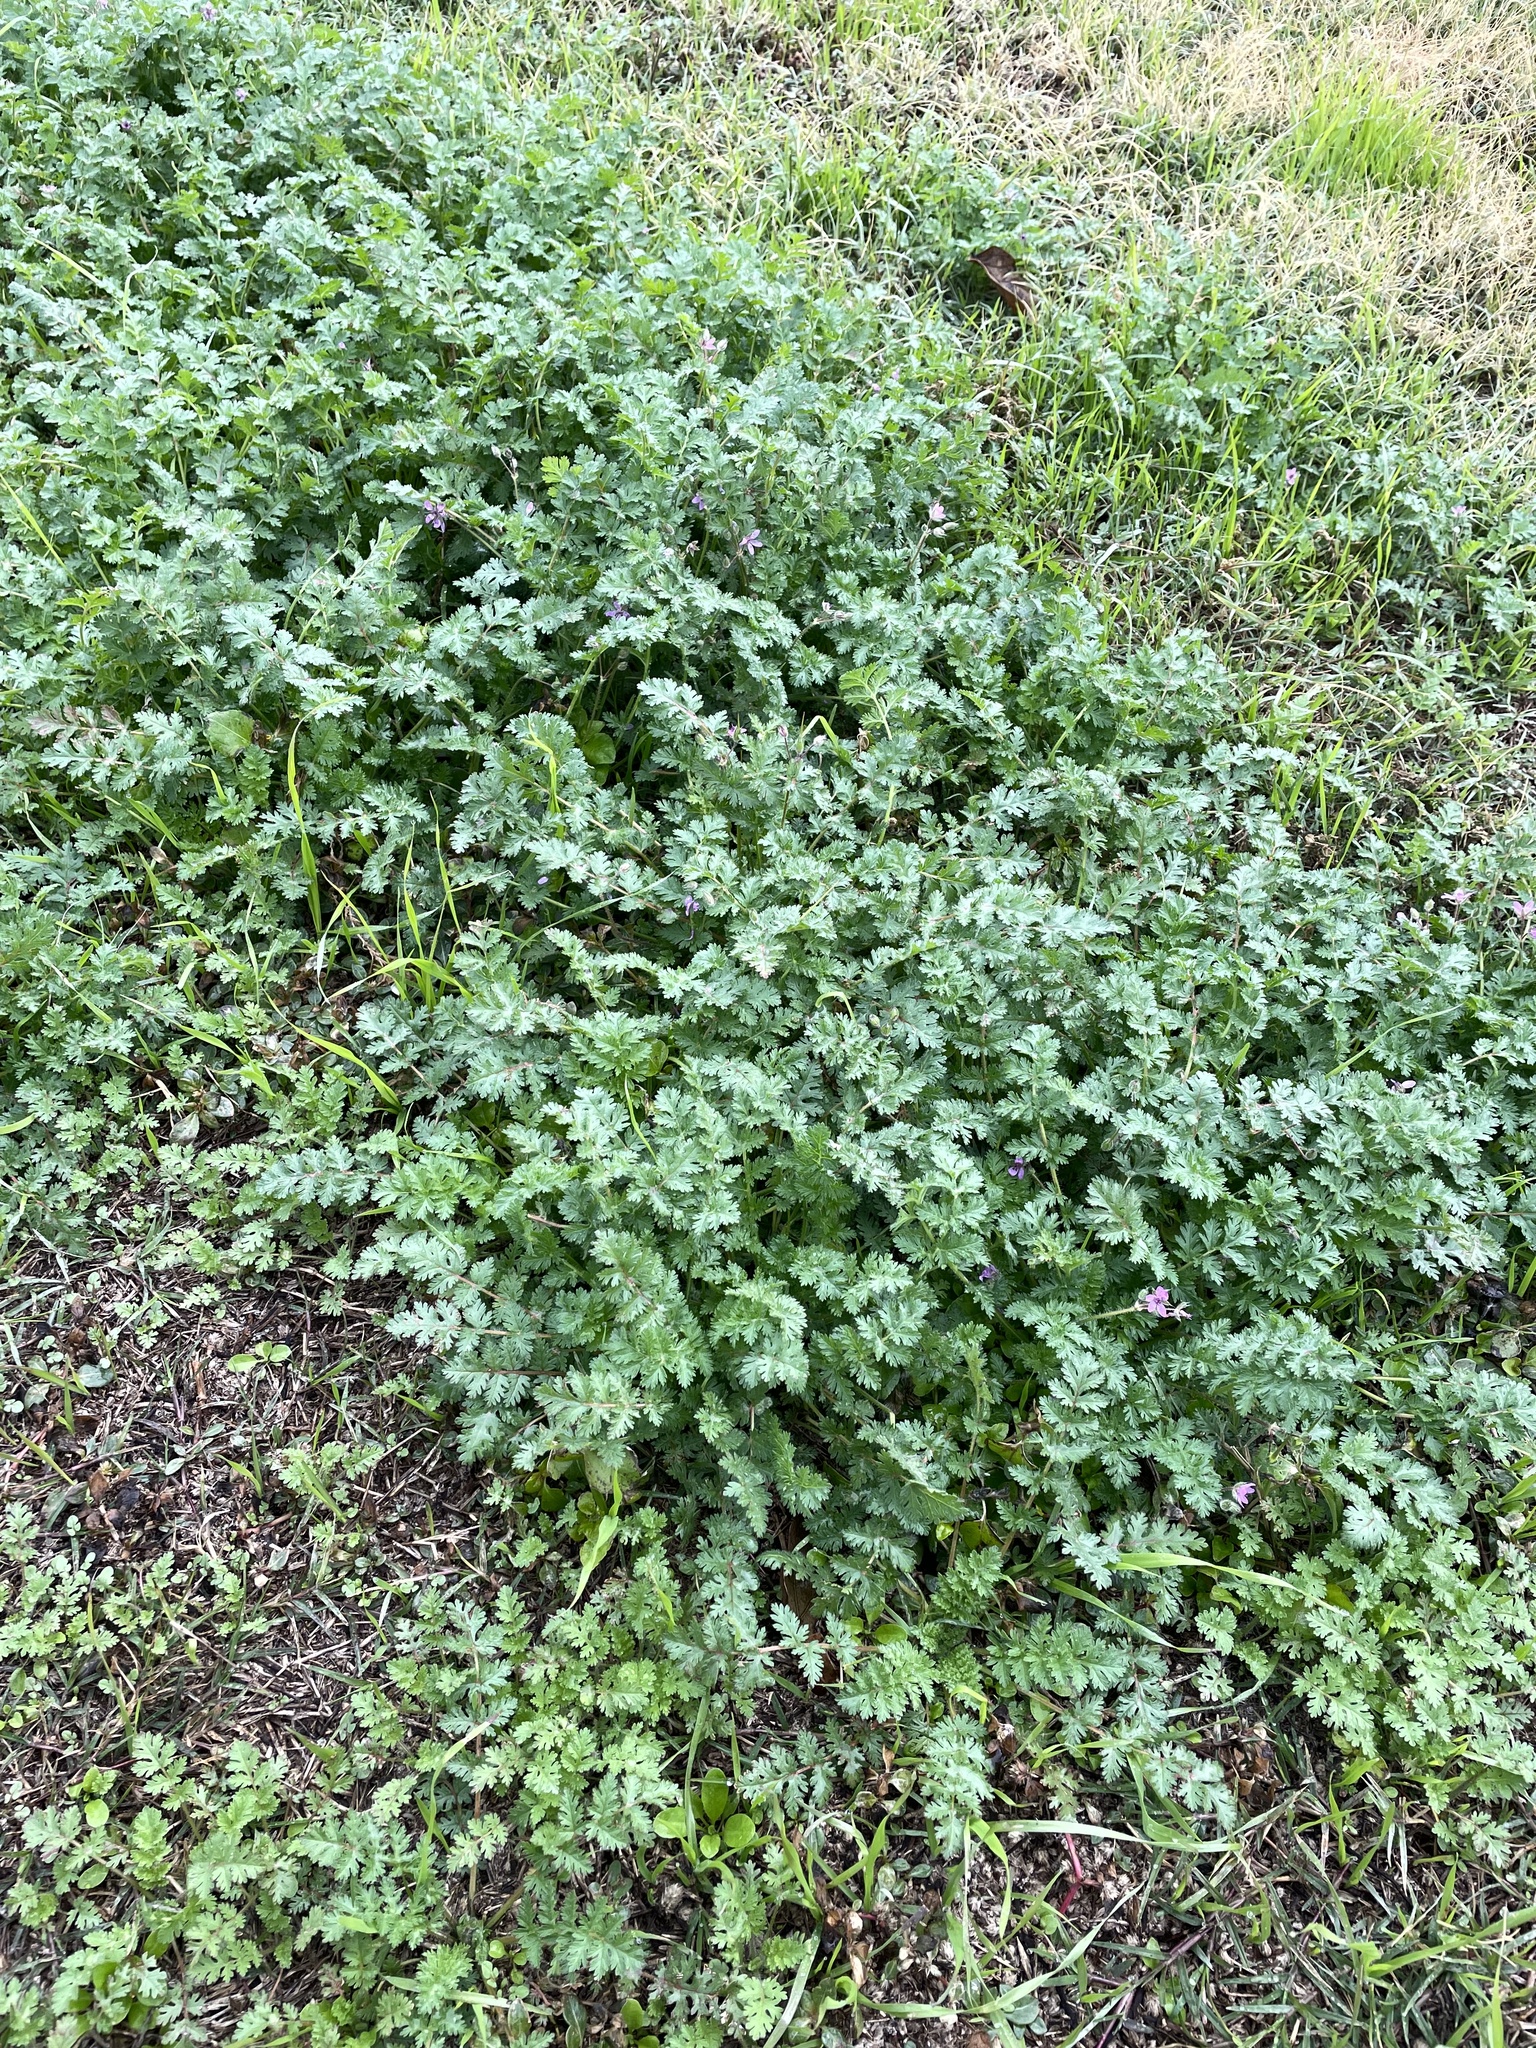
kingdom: Plantae
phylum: Tracheophyta
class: Magnoliopsida
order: Geraniales
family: Geraniaceae
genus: Erodium
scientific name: Erodium cicutarium
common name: Common stork's-bill
